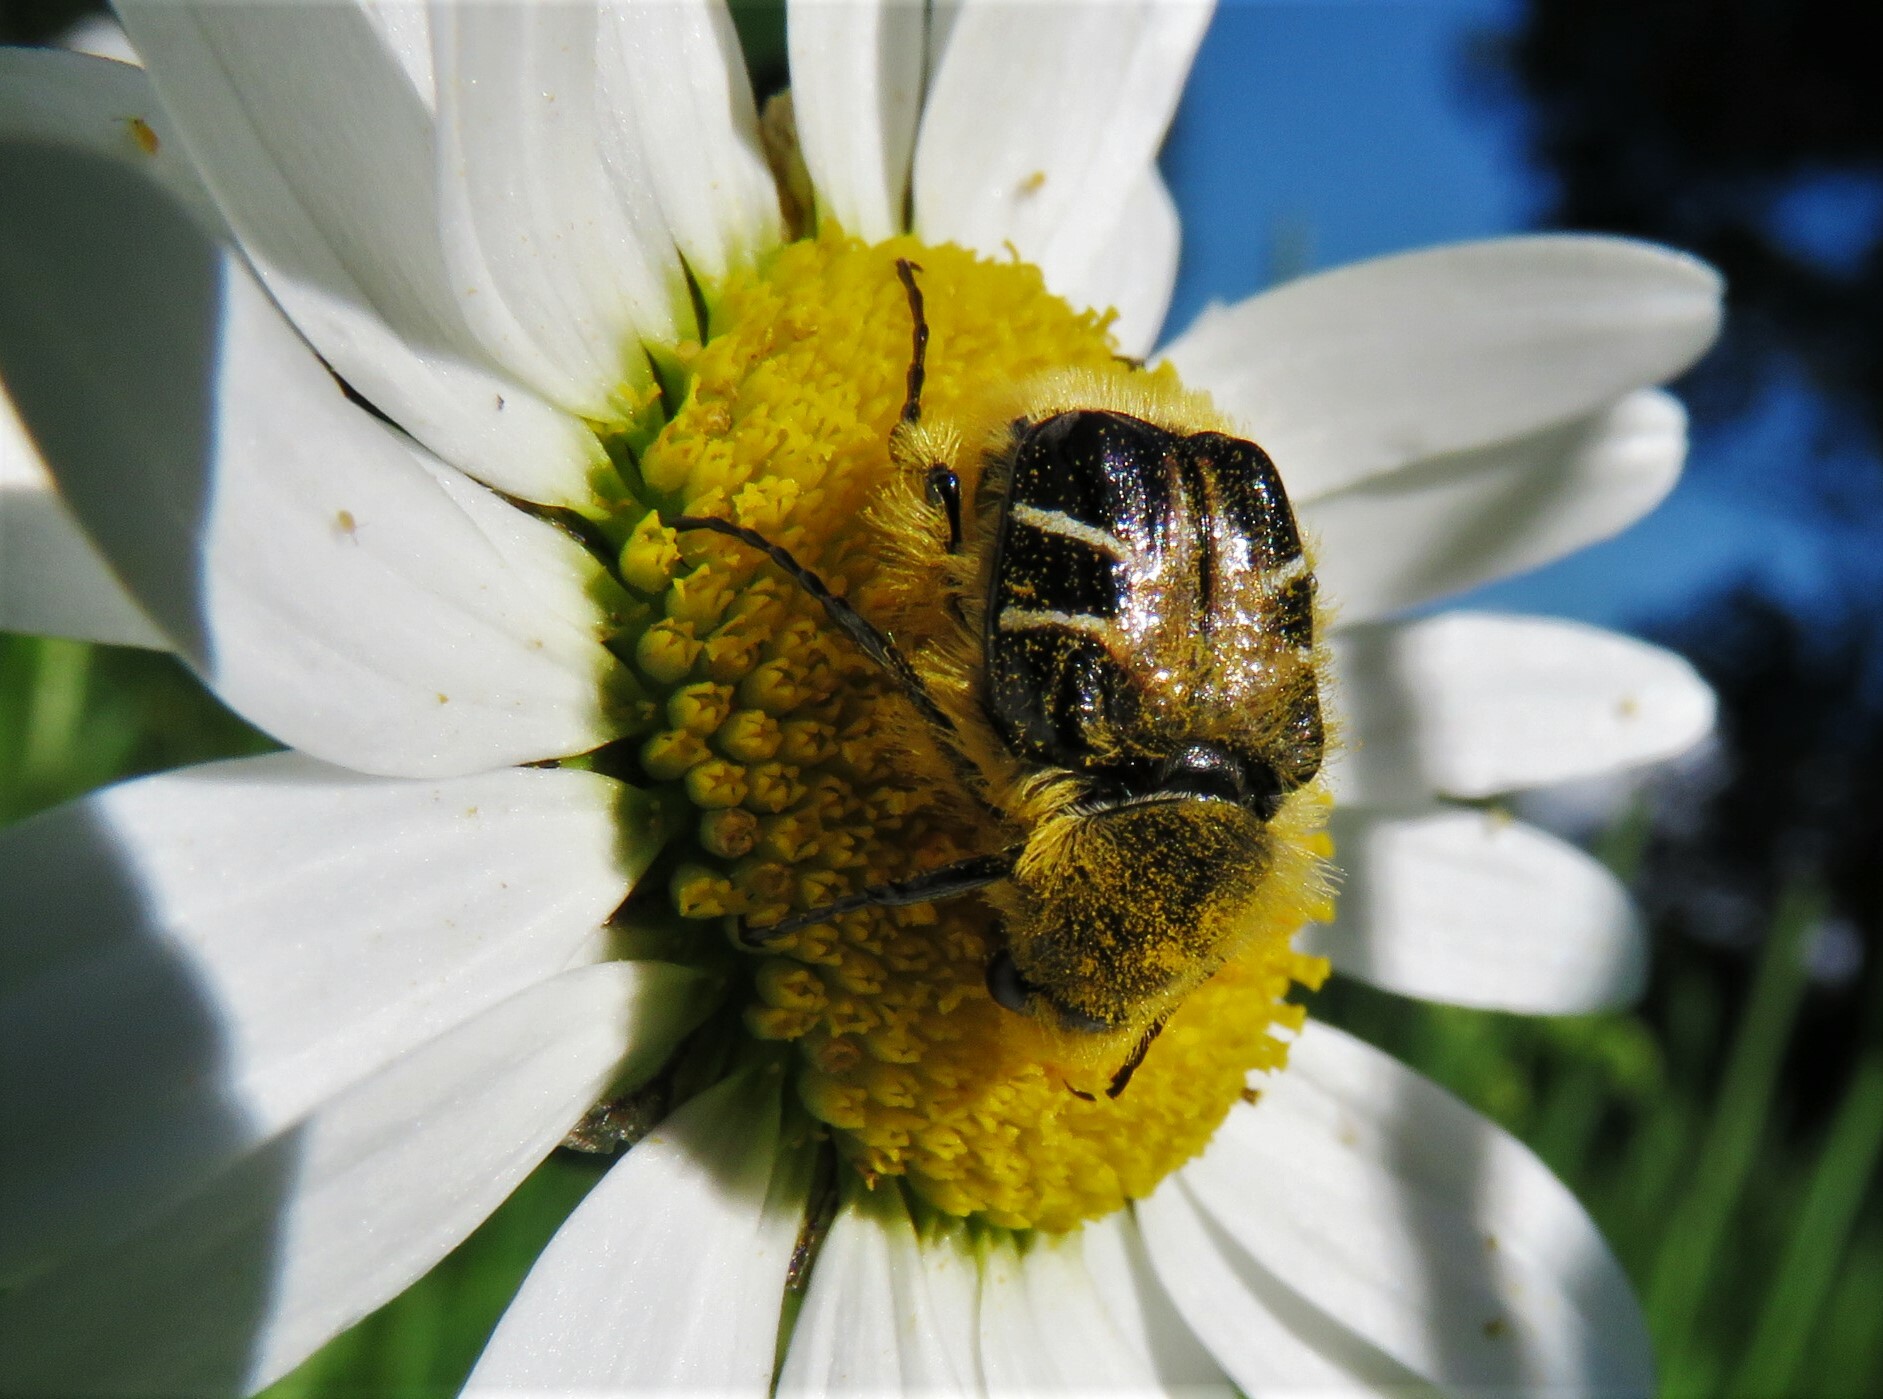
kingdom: Animalia
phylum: Arthropoda
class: Insecta
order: Coleoptera
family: Scarabaeidae
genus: Trichiotinus
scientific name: Trichiotinus assimilis
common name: Bee-mimic beetle
